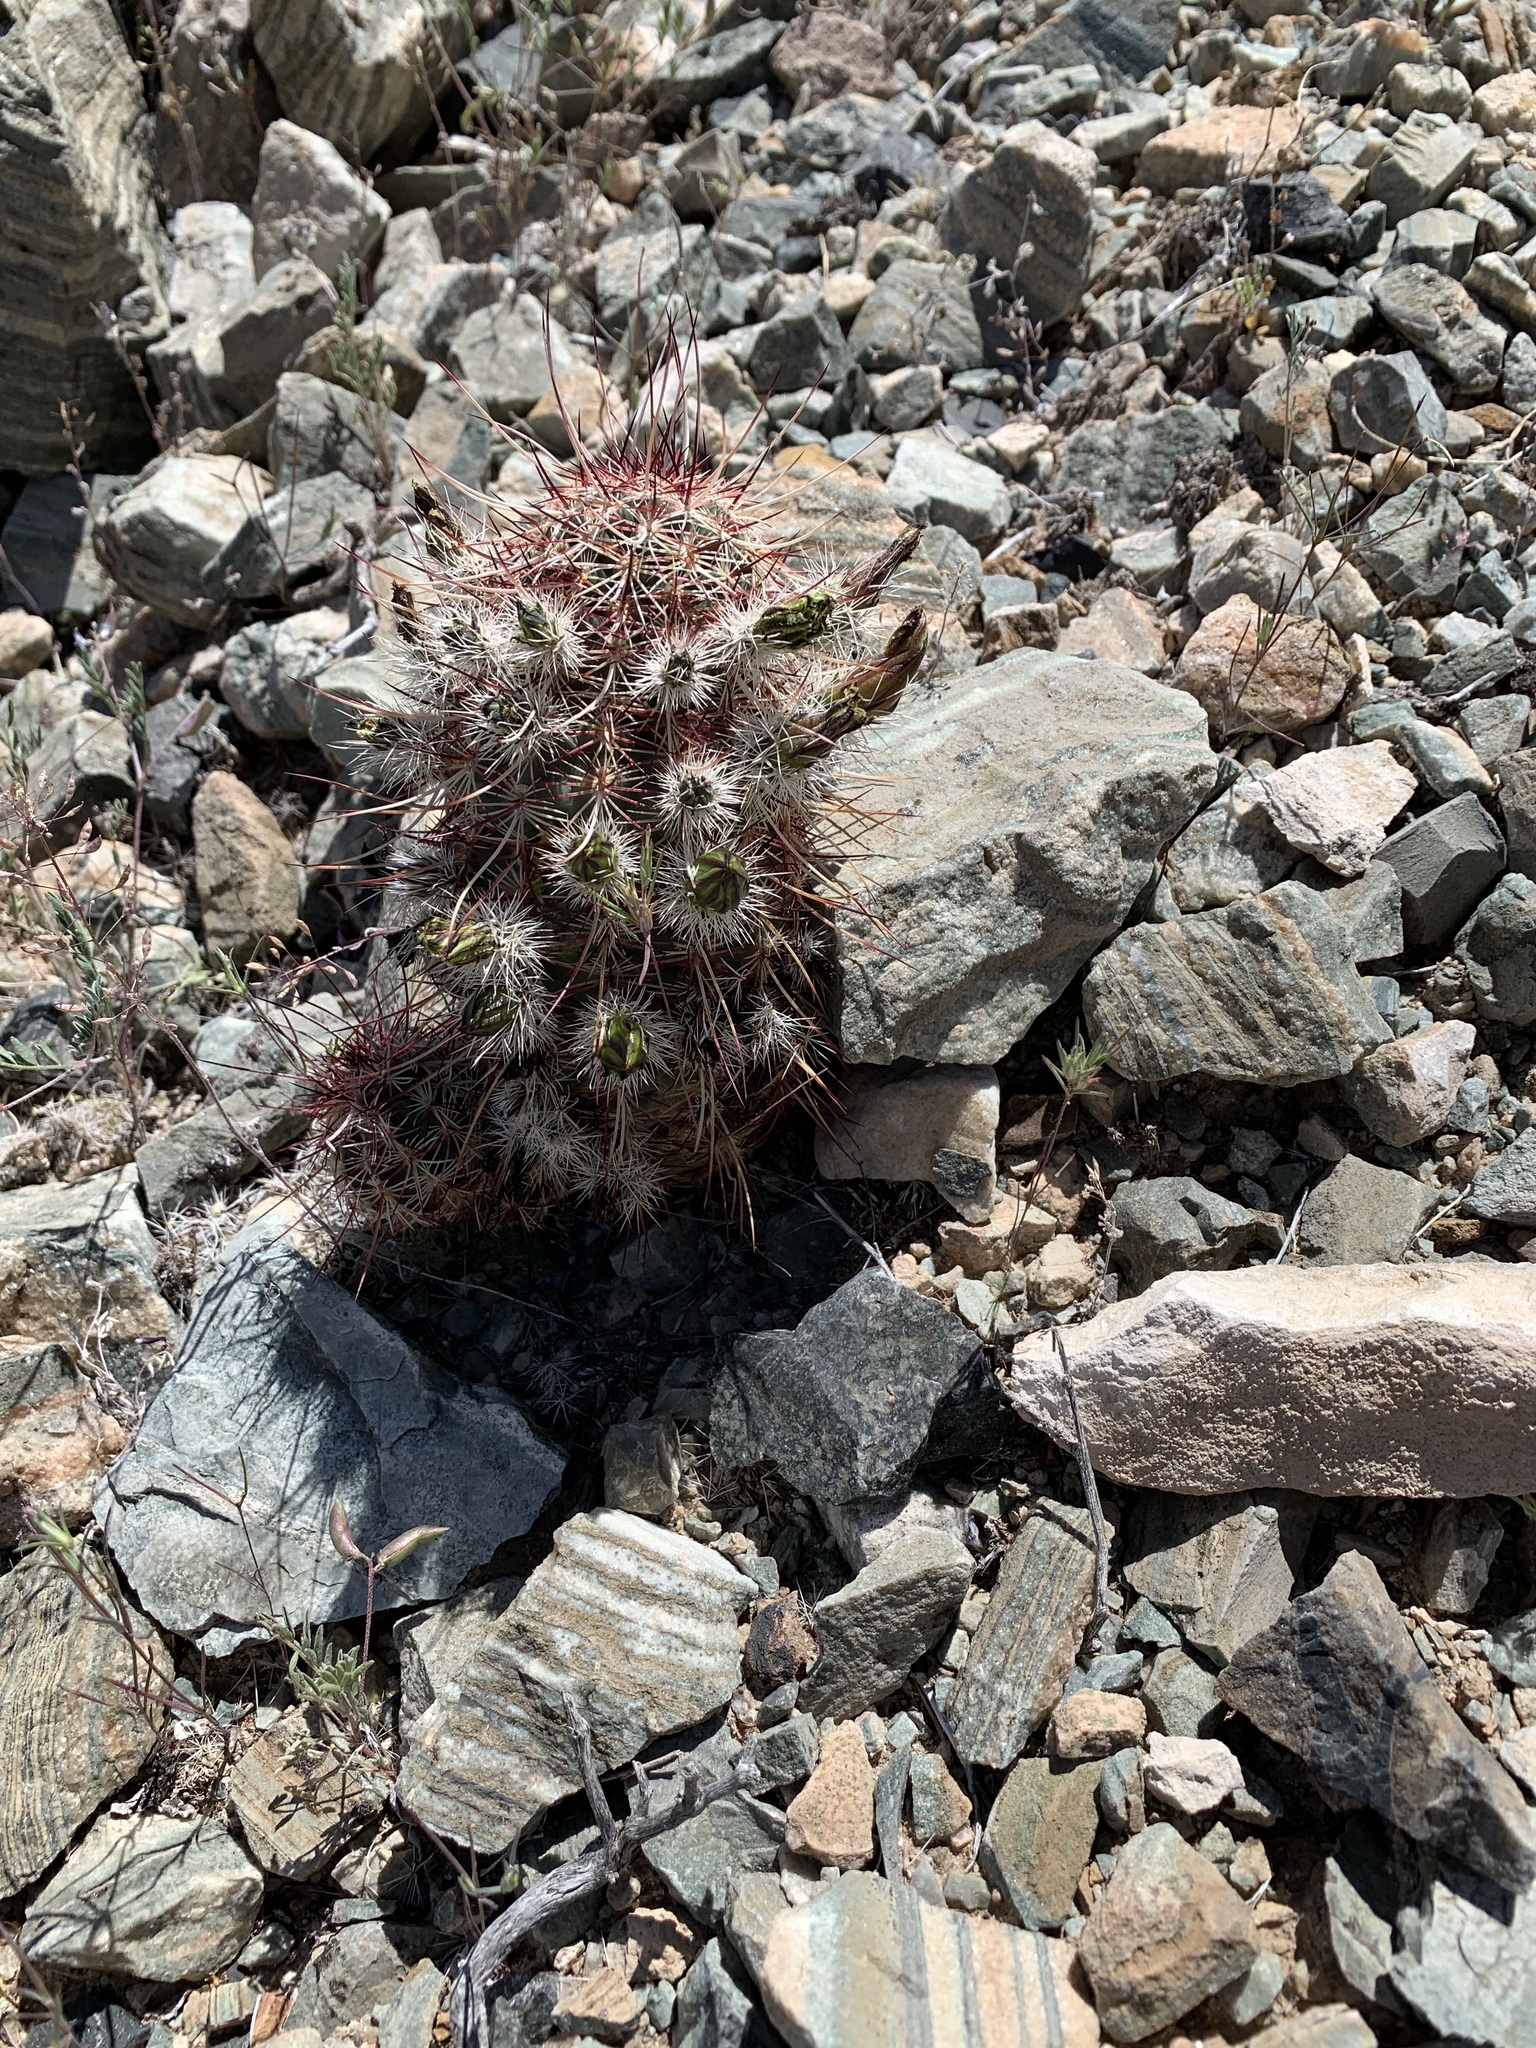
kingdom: Plantae
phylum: Tracheophyta
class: Magnoliopsida
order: Caryophyllales
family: Cactaceae
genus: Echinocereus
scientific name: Echinocereus viridiflorus
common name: Nylon hedgehog cactus
